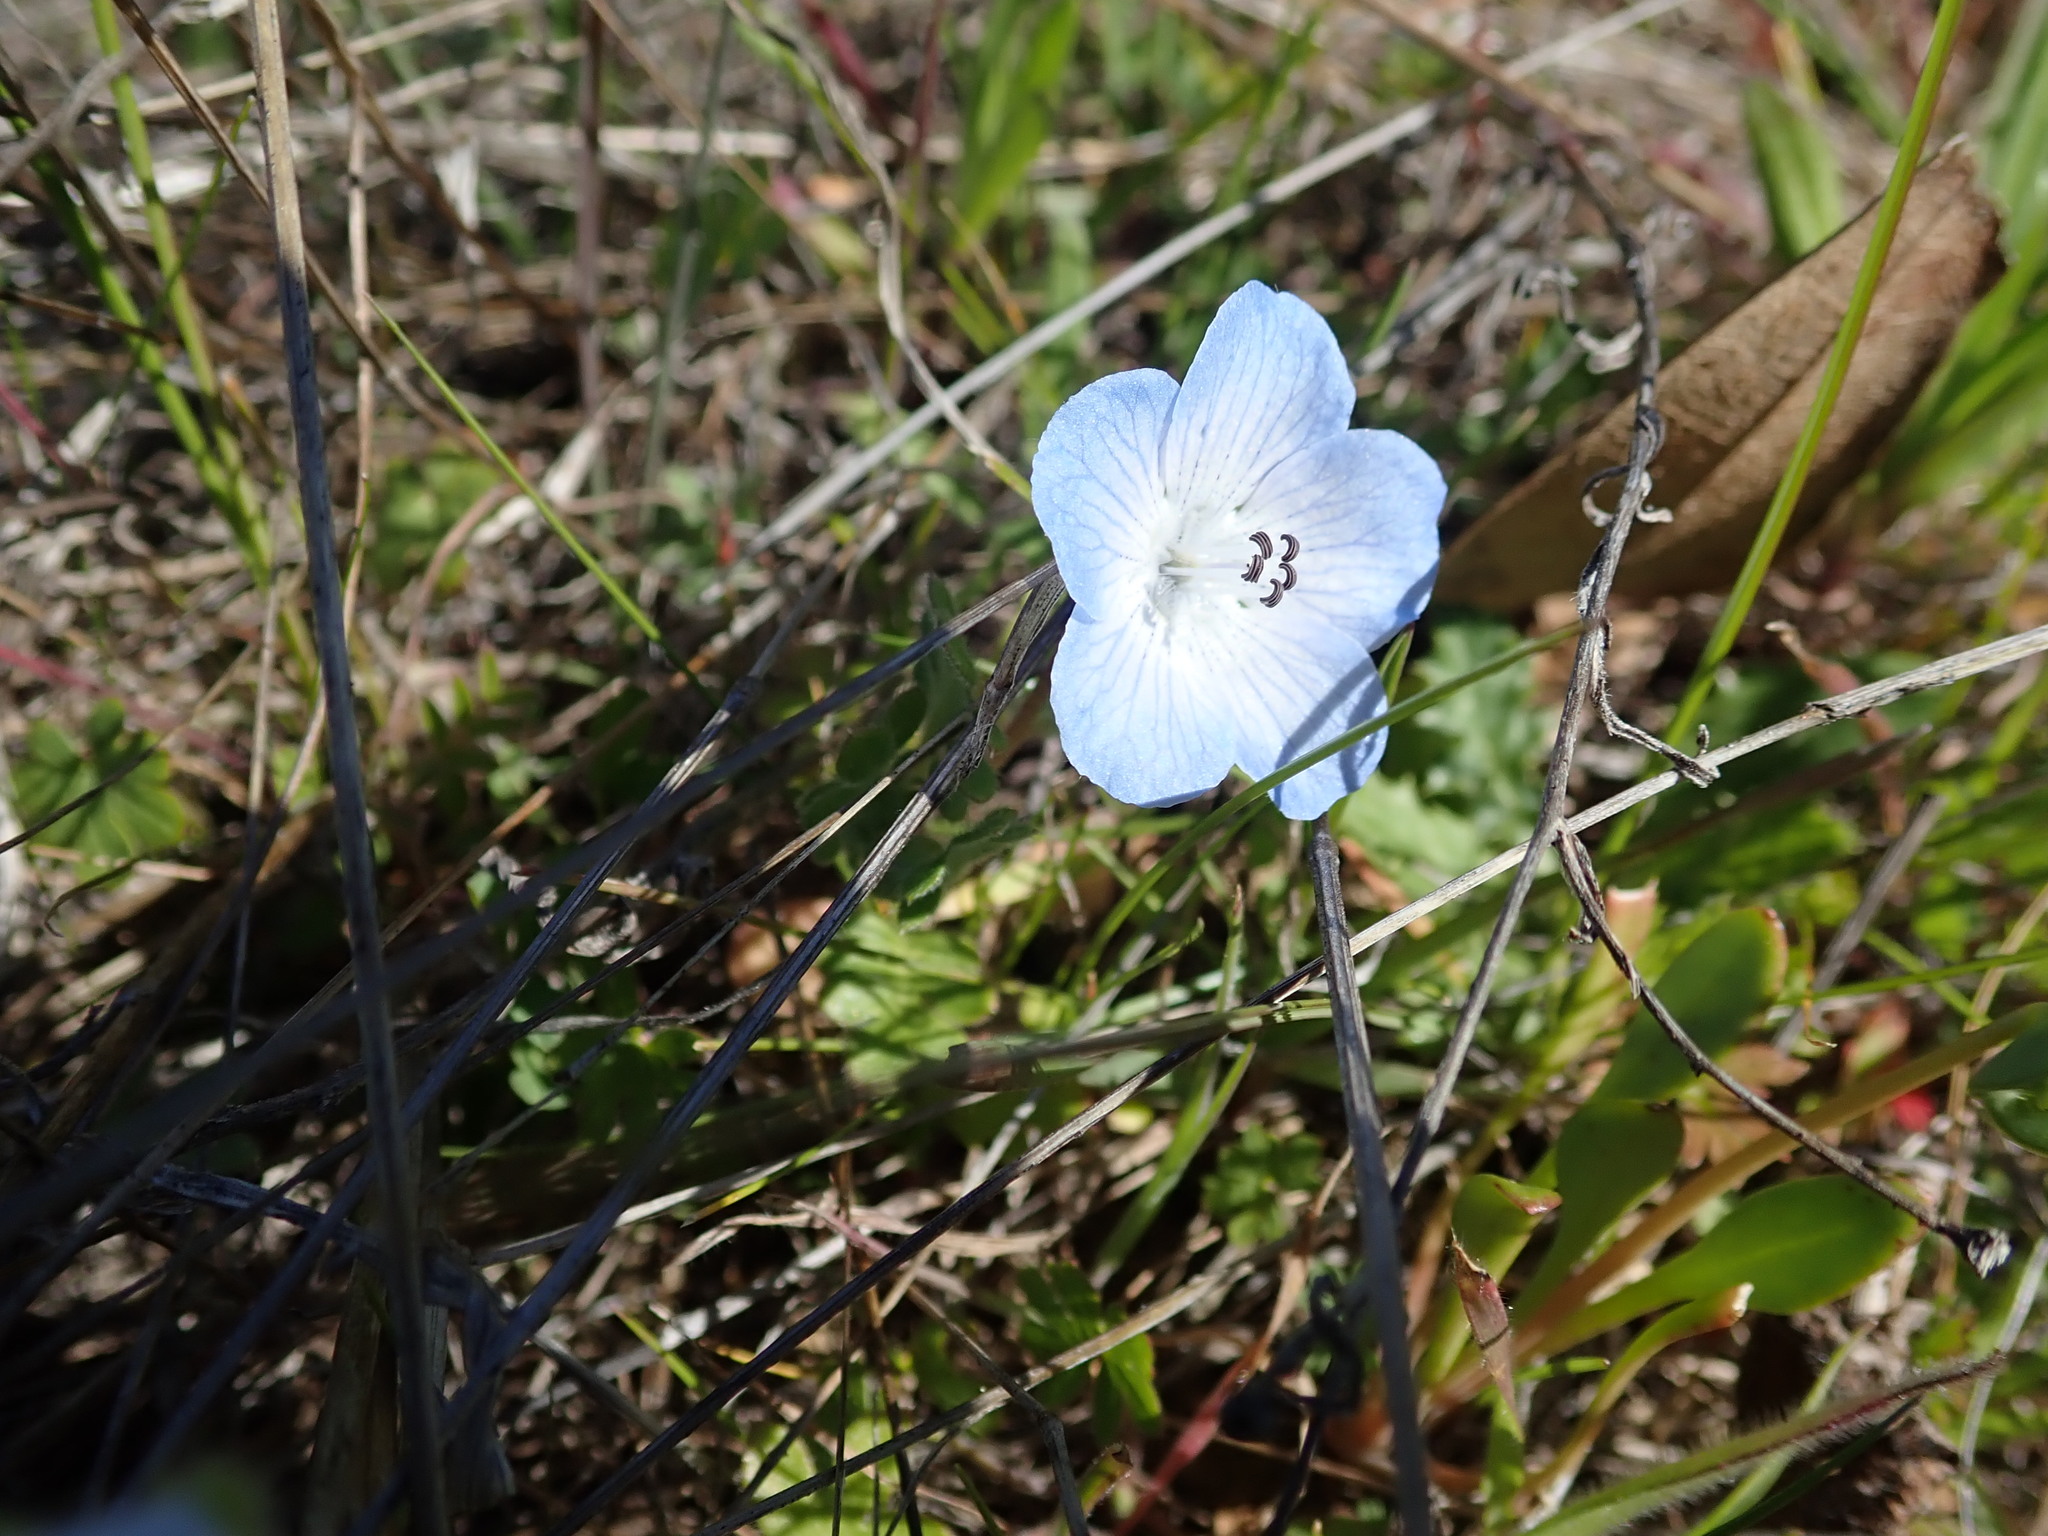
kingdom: Plantae
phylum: Tracheophyta
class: Magnoliopsida
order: Boraginales
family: Hydrophyllaceae
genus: Nemophila
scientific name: Nemophila menziesii
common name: Baby's-blue-eyes
